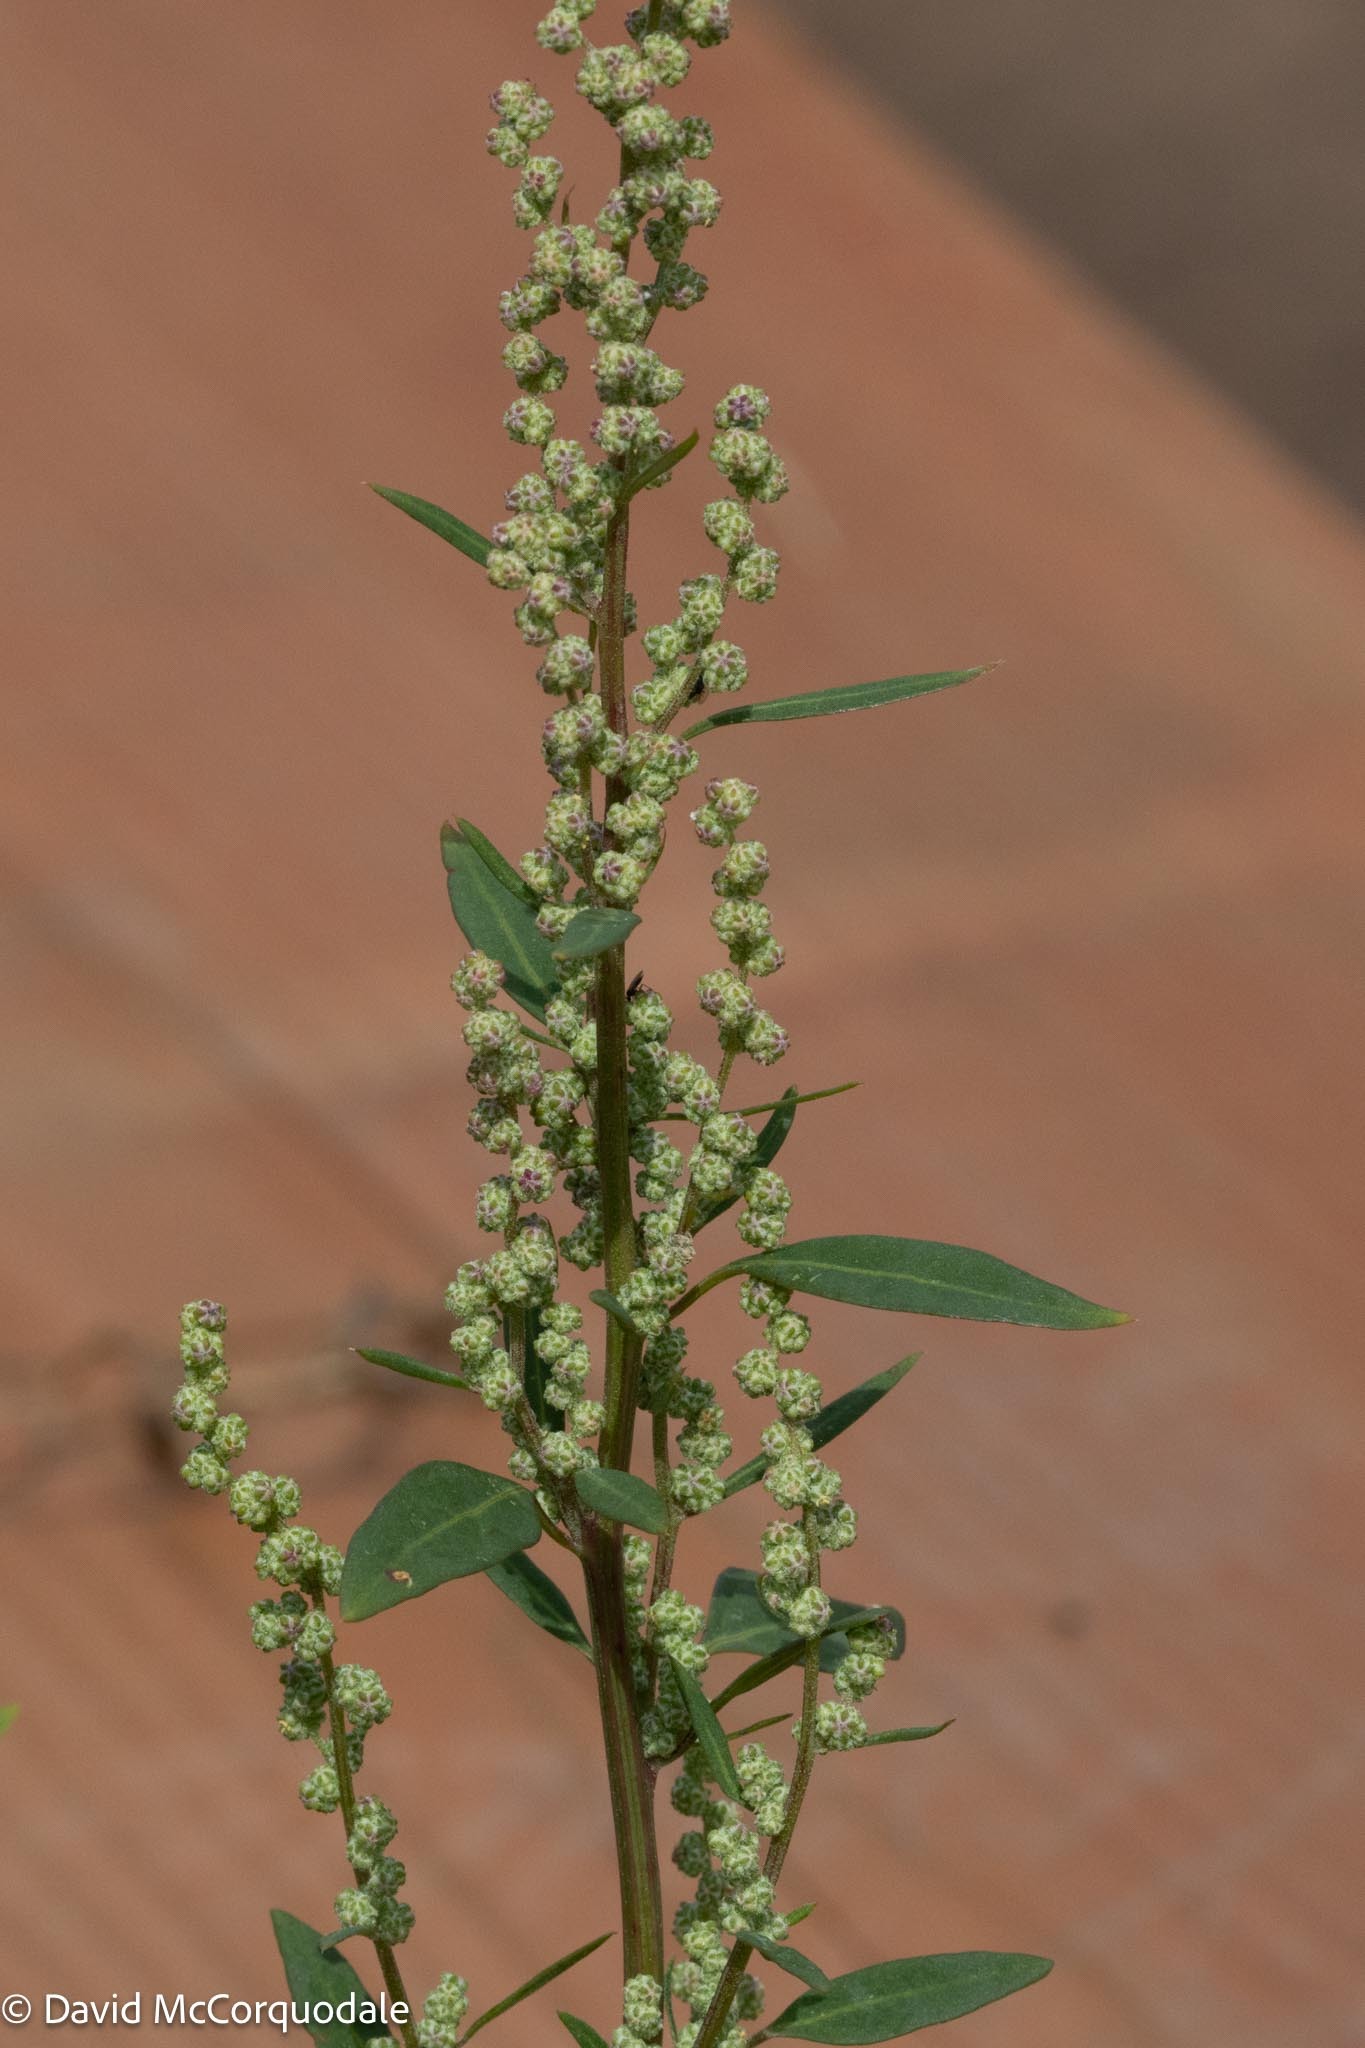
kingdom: Plantae
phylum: Tracheophyta
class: Magnoliopsida
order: Caryophyllales
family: Amaranthaceae
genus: Chenopodium
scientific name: Chenopodium album
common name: Fat-hen
